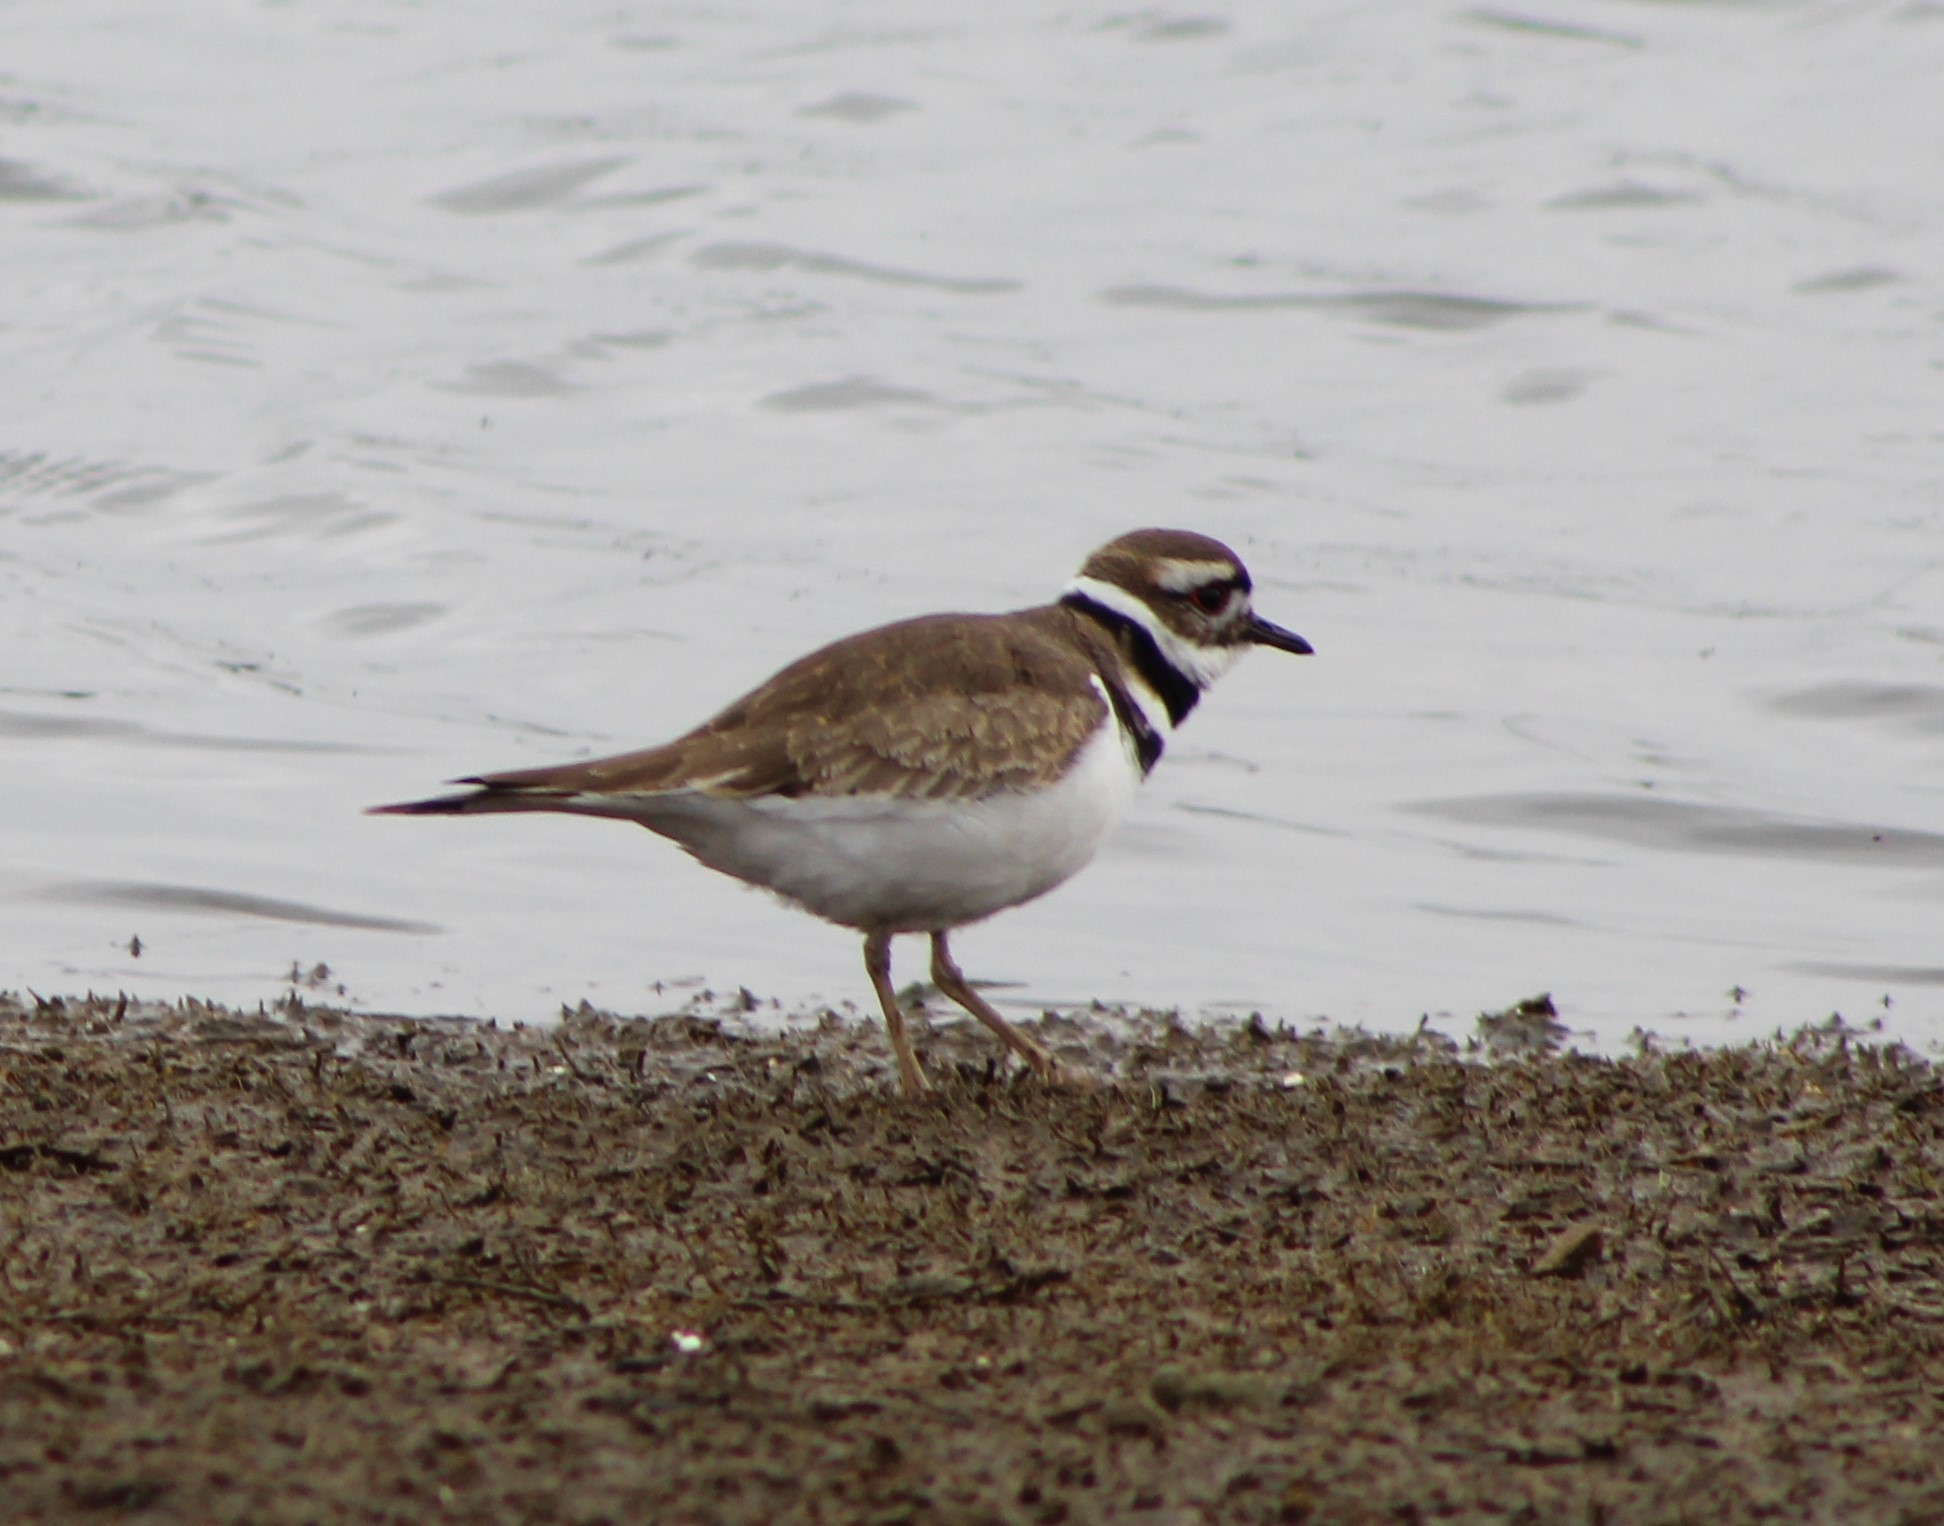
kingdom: Animalia
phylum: Chordata
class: Aves
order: Charadriiformes
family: Charadriidae
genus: Charadrius
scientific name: Charadrius vociferus
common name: Killdeer
